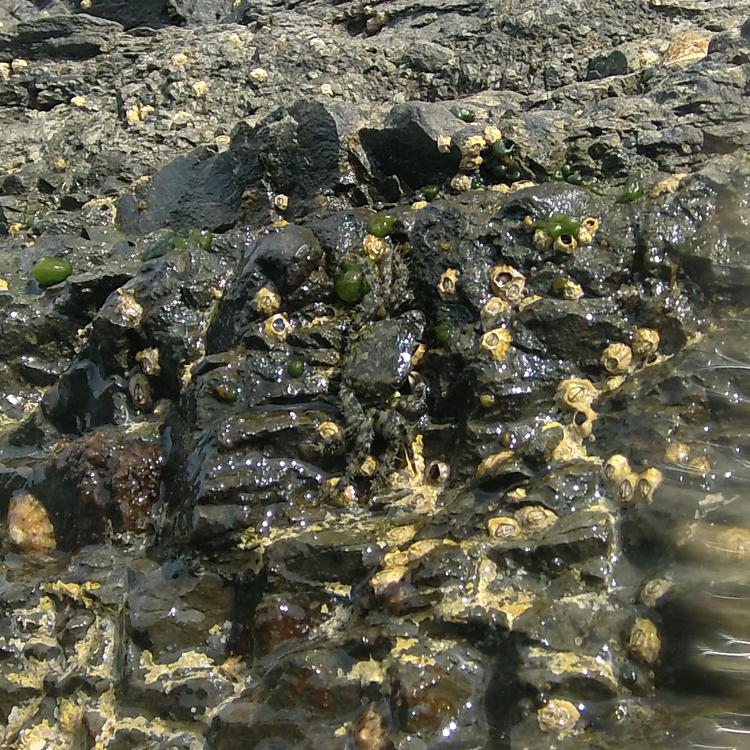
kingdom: Animalia
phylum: Arthropoda
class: Malacostraca
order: Decapoda
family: Grapsidae
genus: Pachygrapsus
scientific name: Pachygrapsus marmoratus
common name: Marbled rock crab
